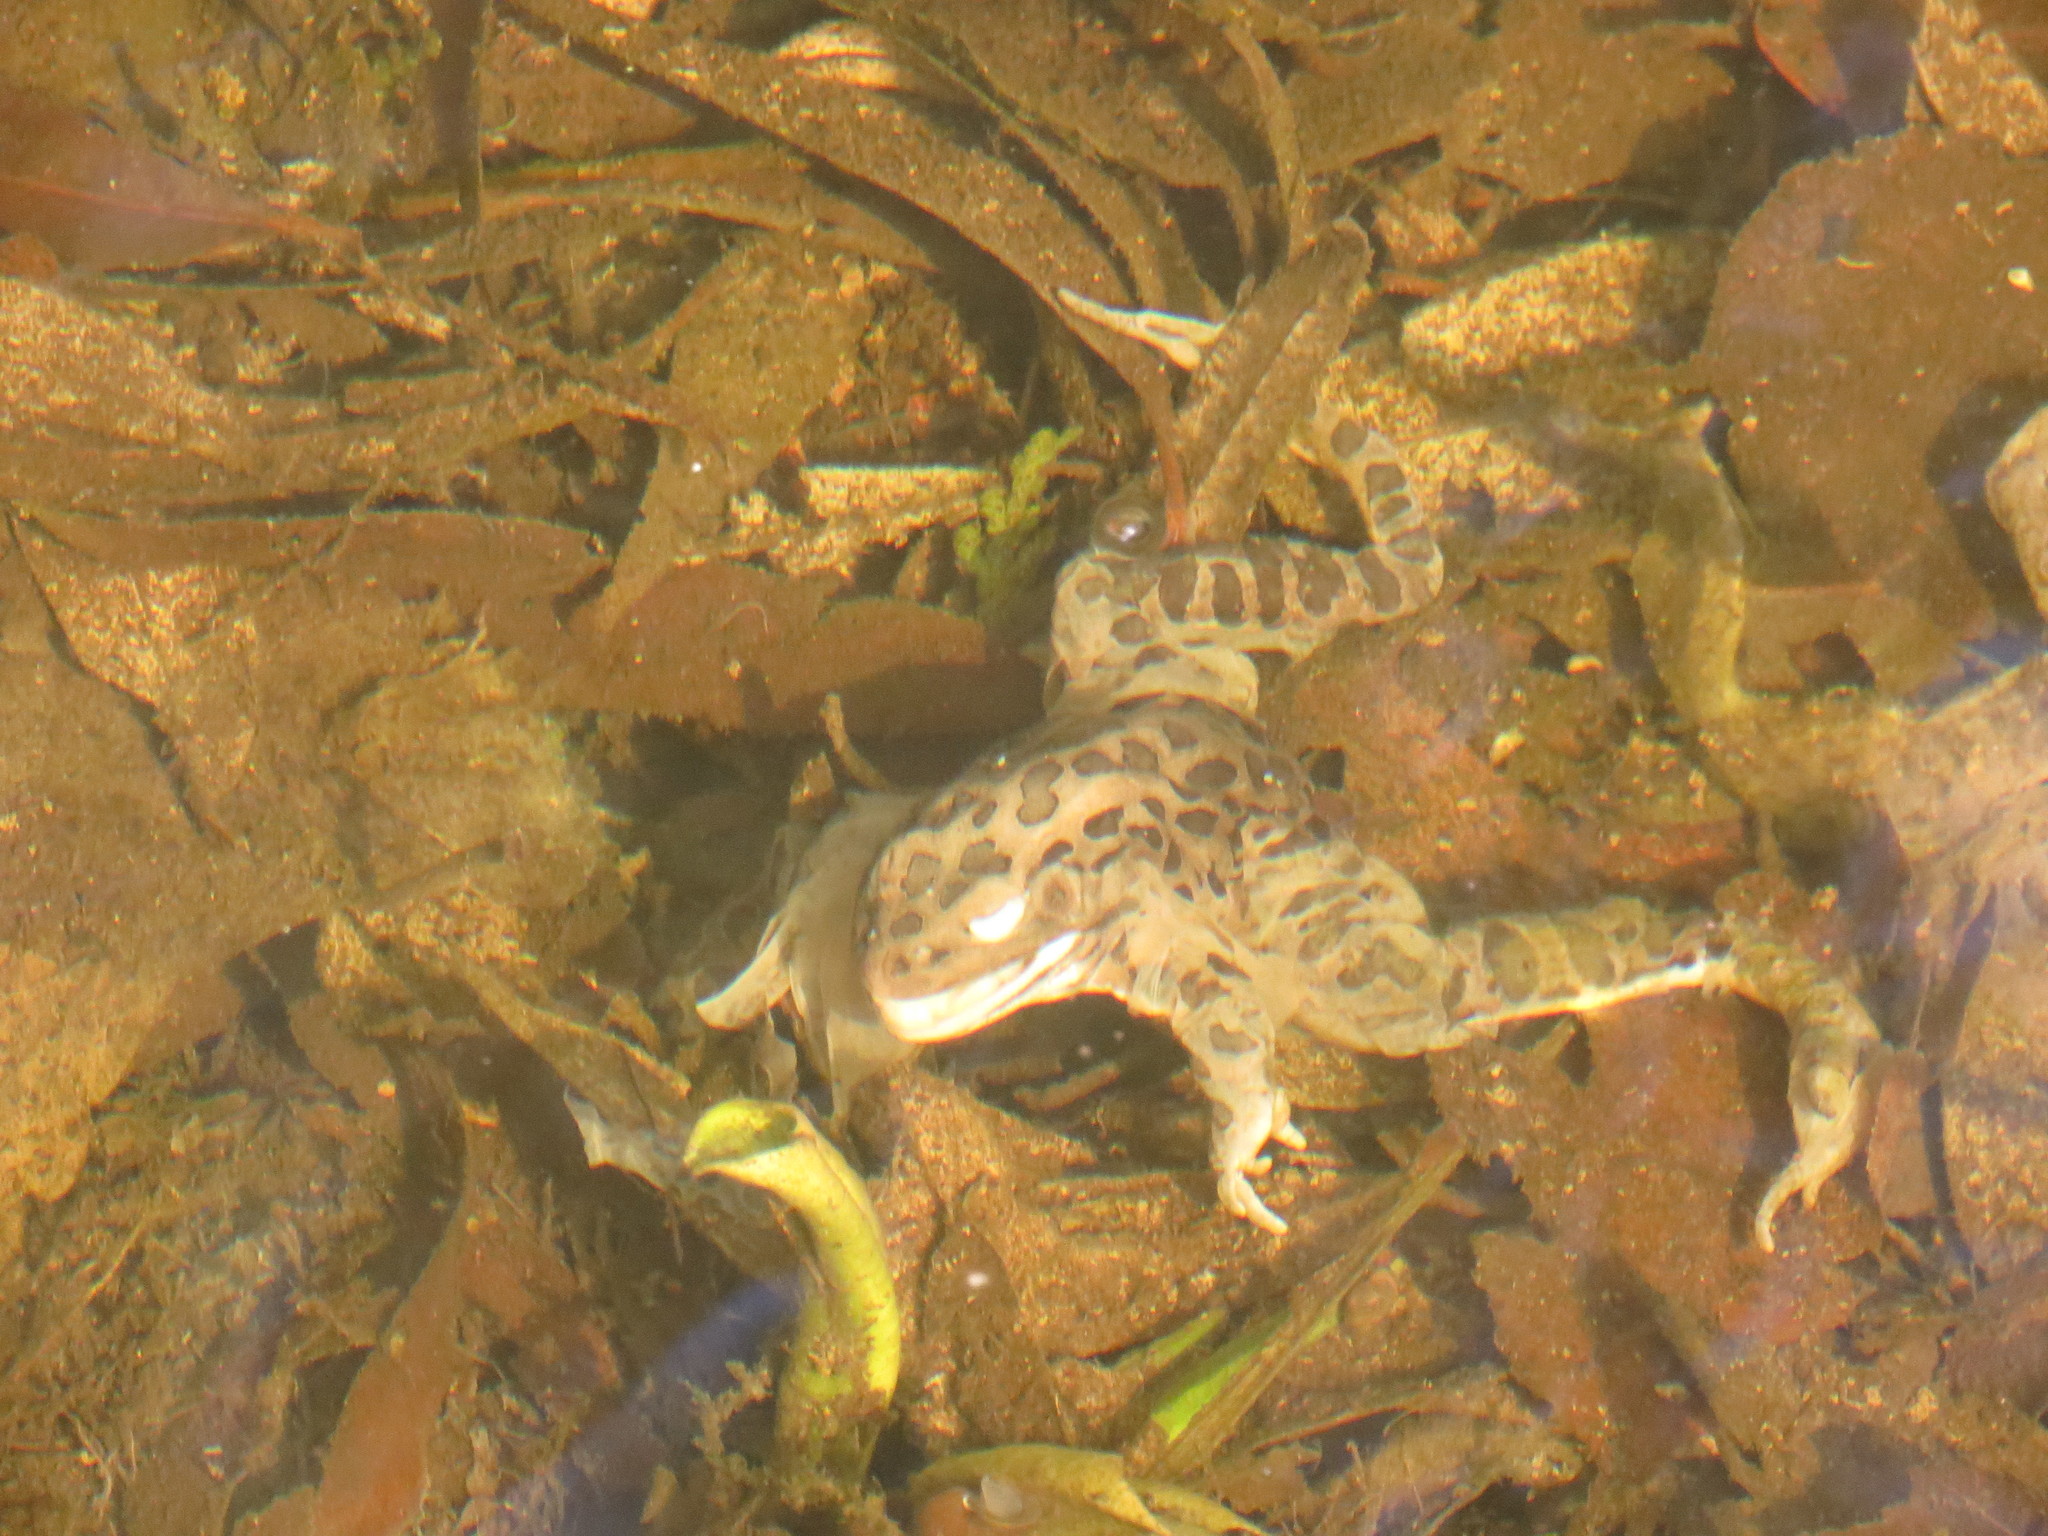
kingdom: Animalia
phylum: Chordata
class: Amphibia
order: Anura
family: Ranidae
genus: Lithobates
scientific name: Lithobates pipiens
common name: Northern leopard frog
